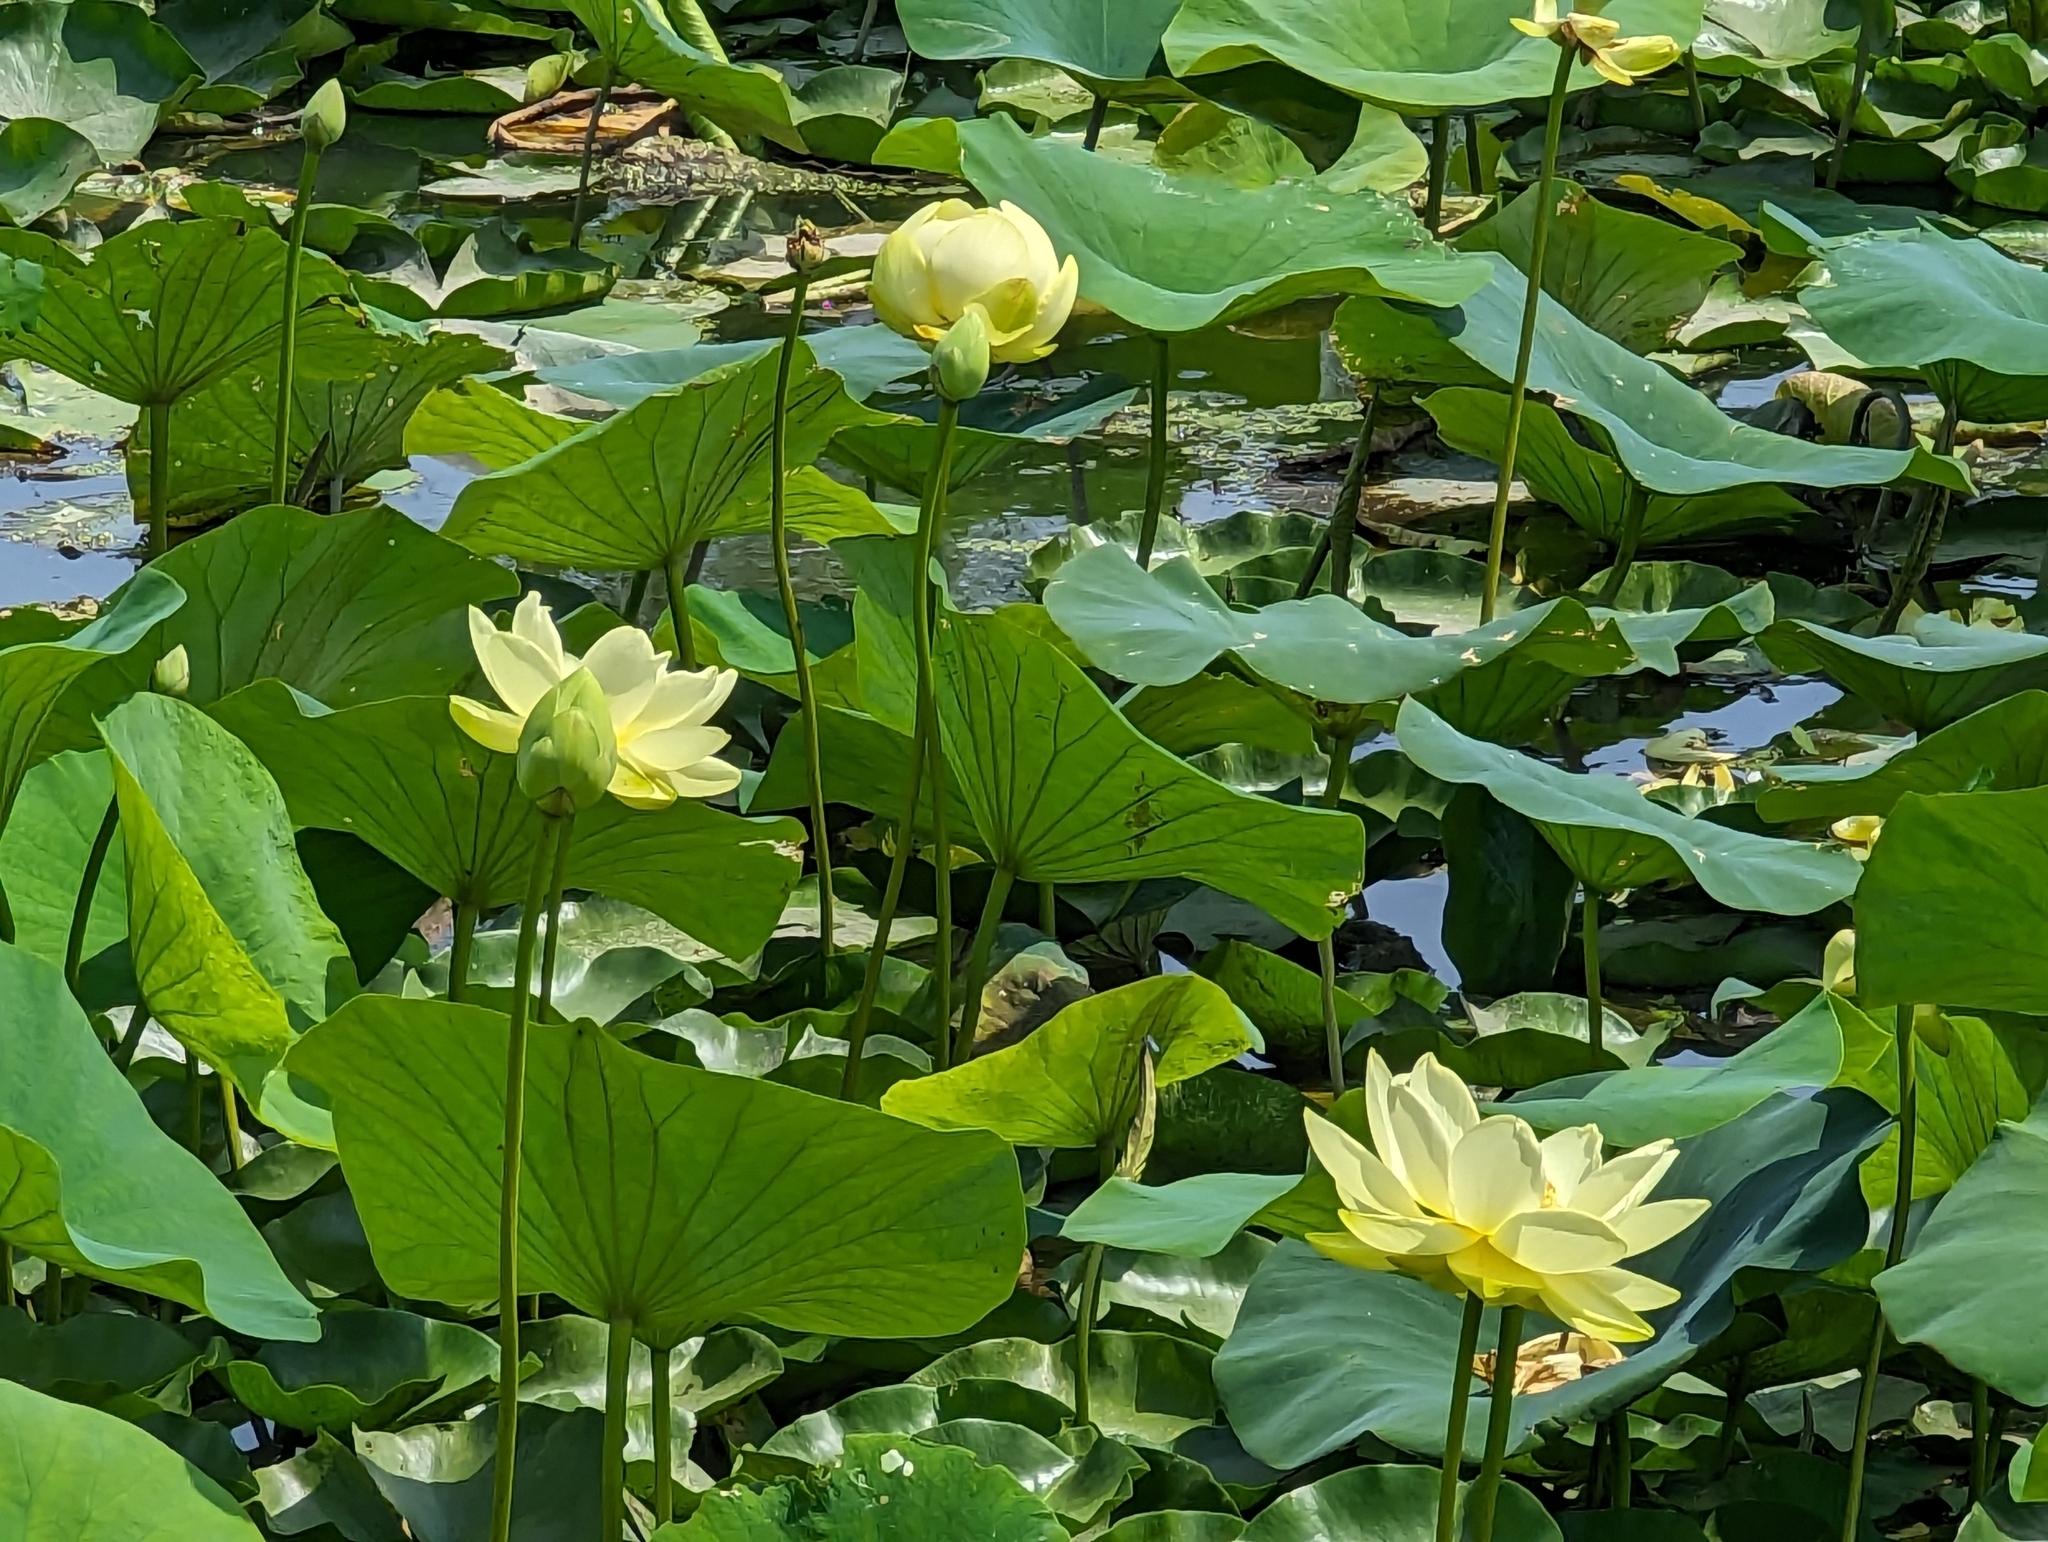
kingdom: Plantae
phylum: Tracheophyta
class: Magnoliopsida
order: Proteales
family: Nelumbonaceae
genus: Nelumbo
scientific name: Nelumbo lutea
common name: American lotus
